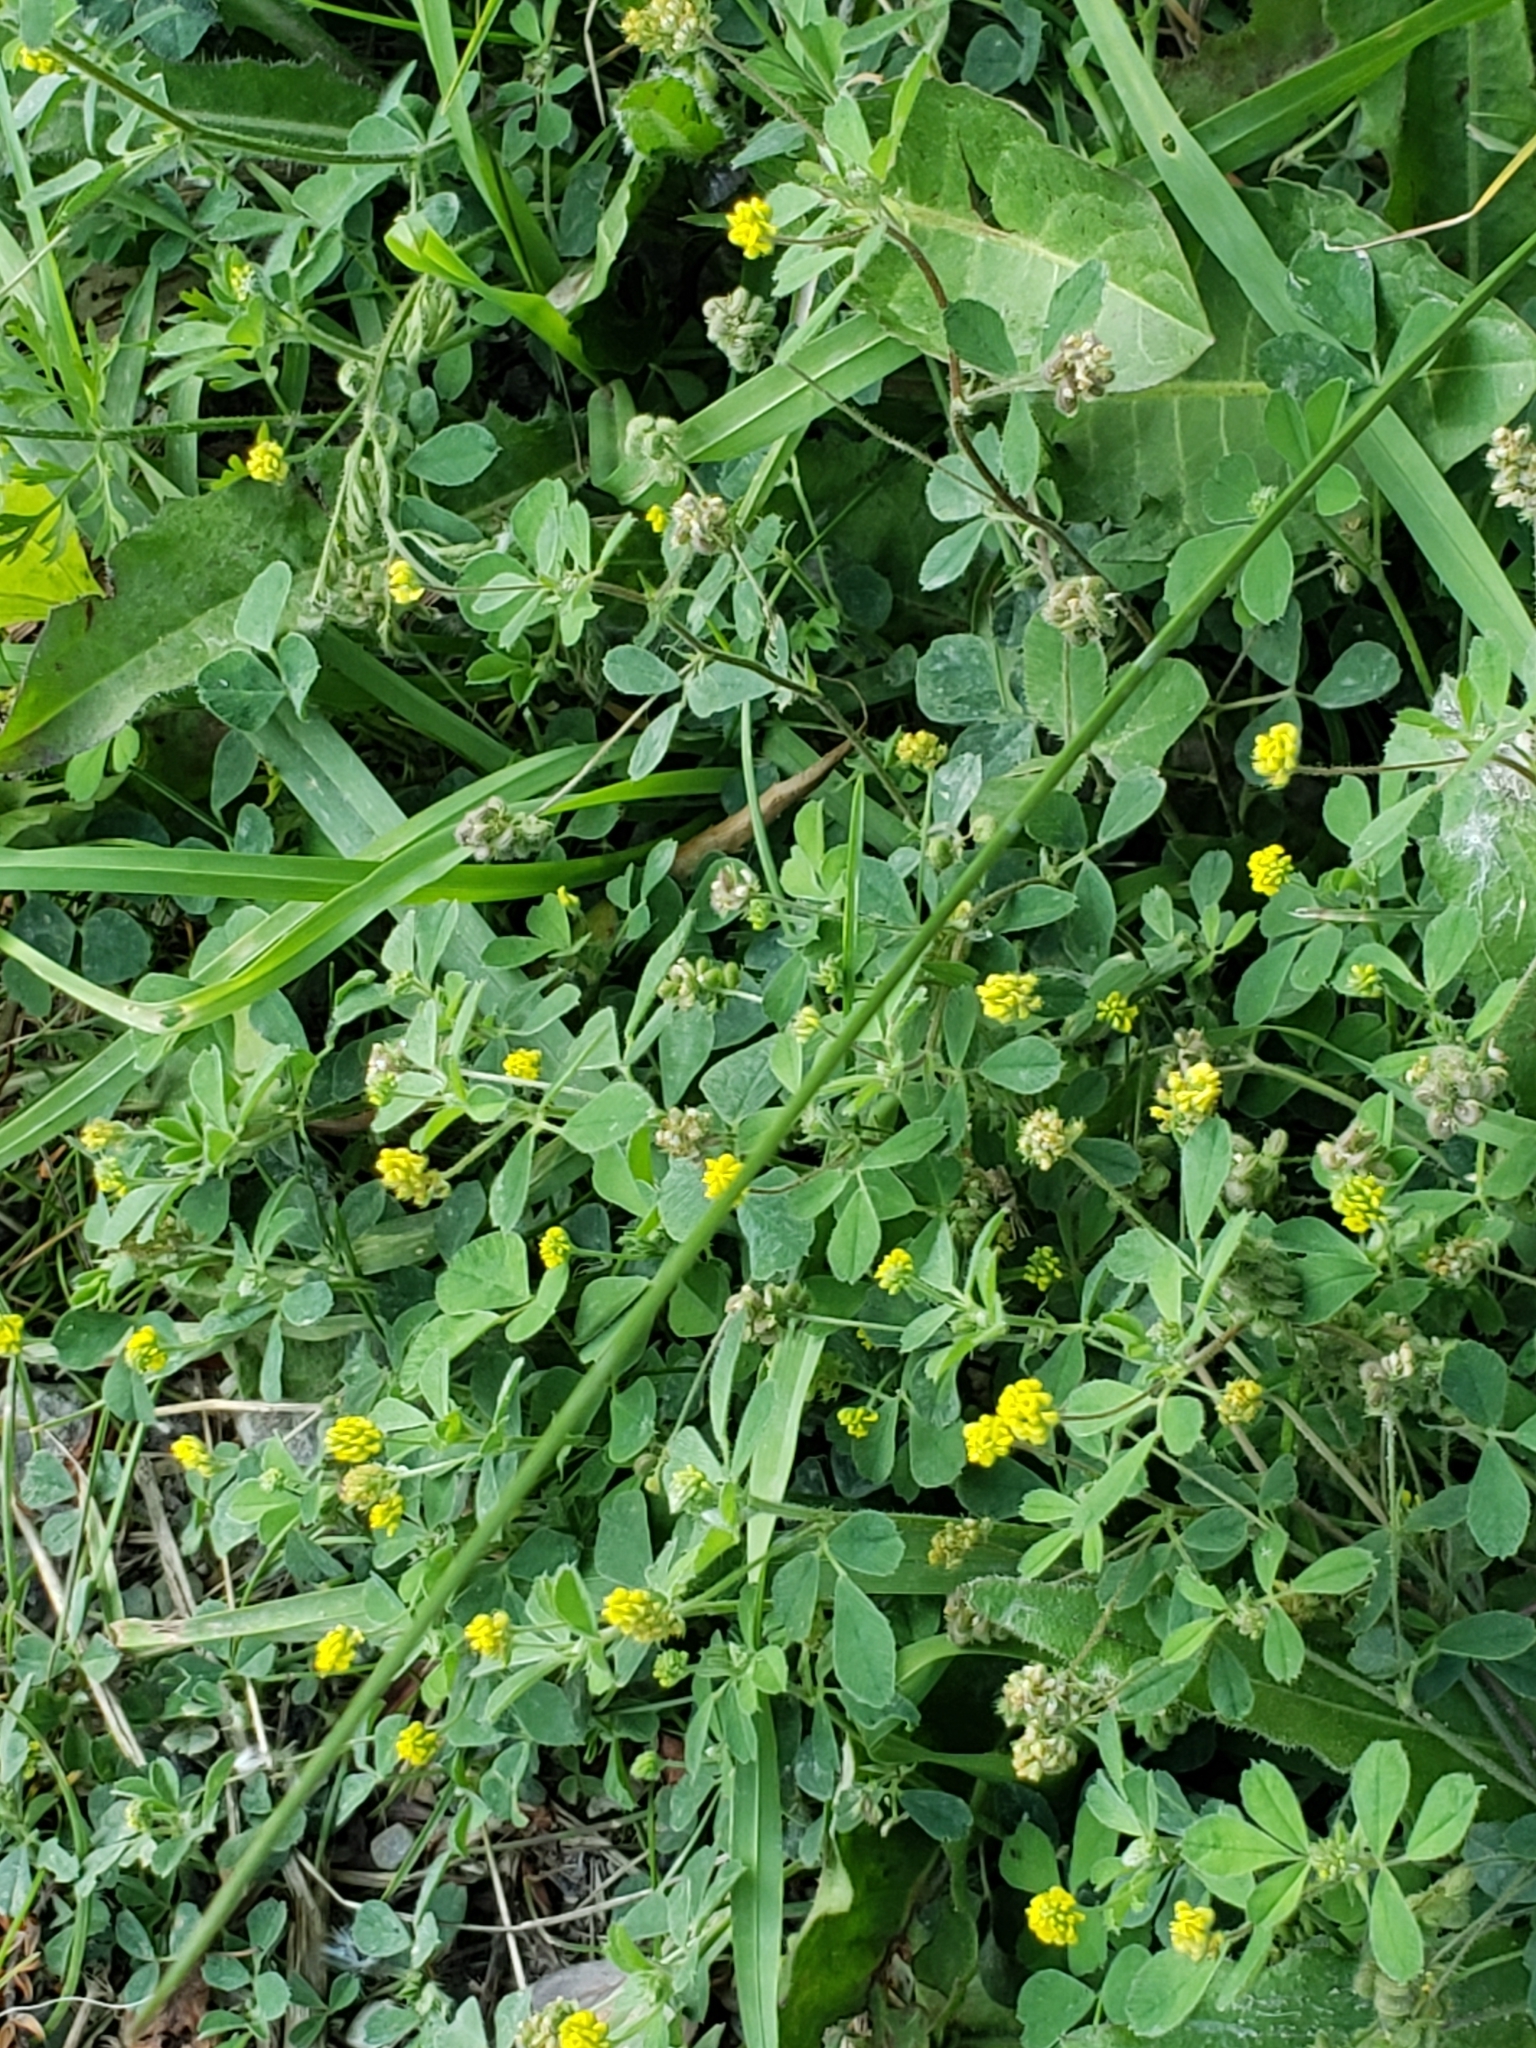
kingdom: Plantae
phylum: Tracheophyta
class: Magnoliopsida
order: Fabales
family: Fabaceae
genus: Medicago
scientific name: Medicago lupulina
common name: Black medick
